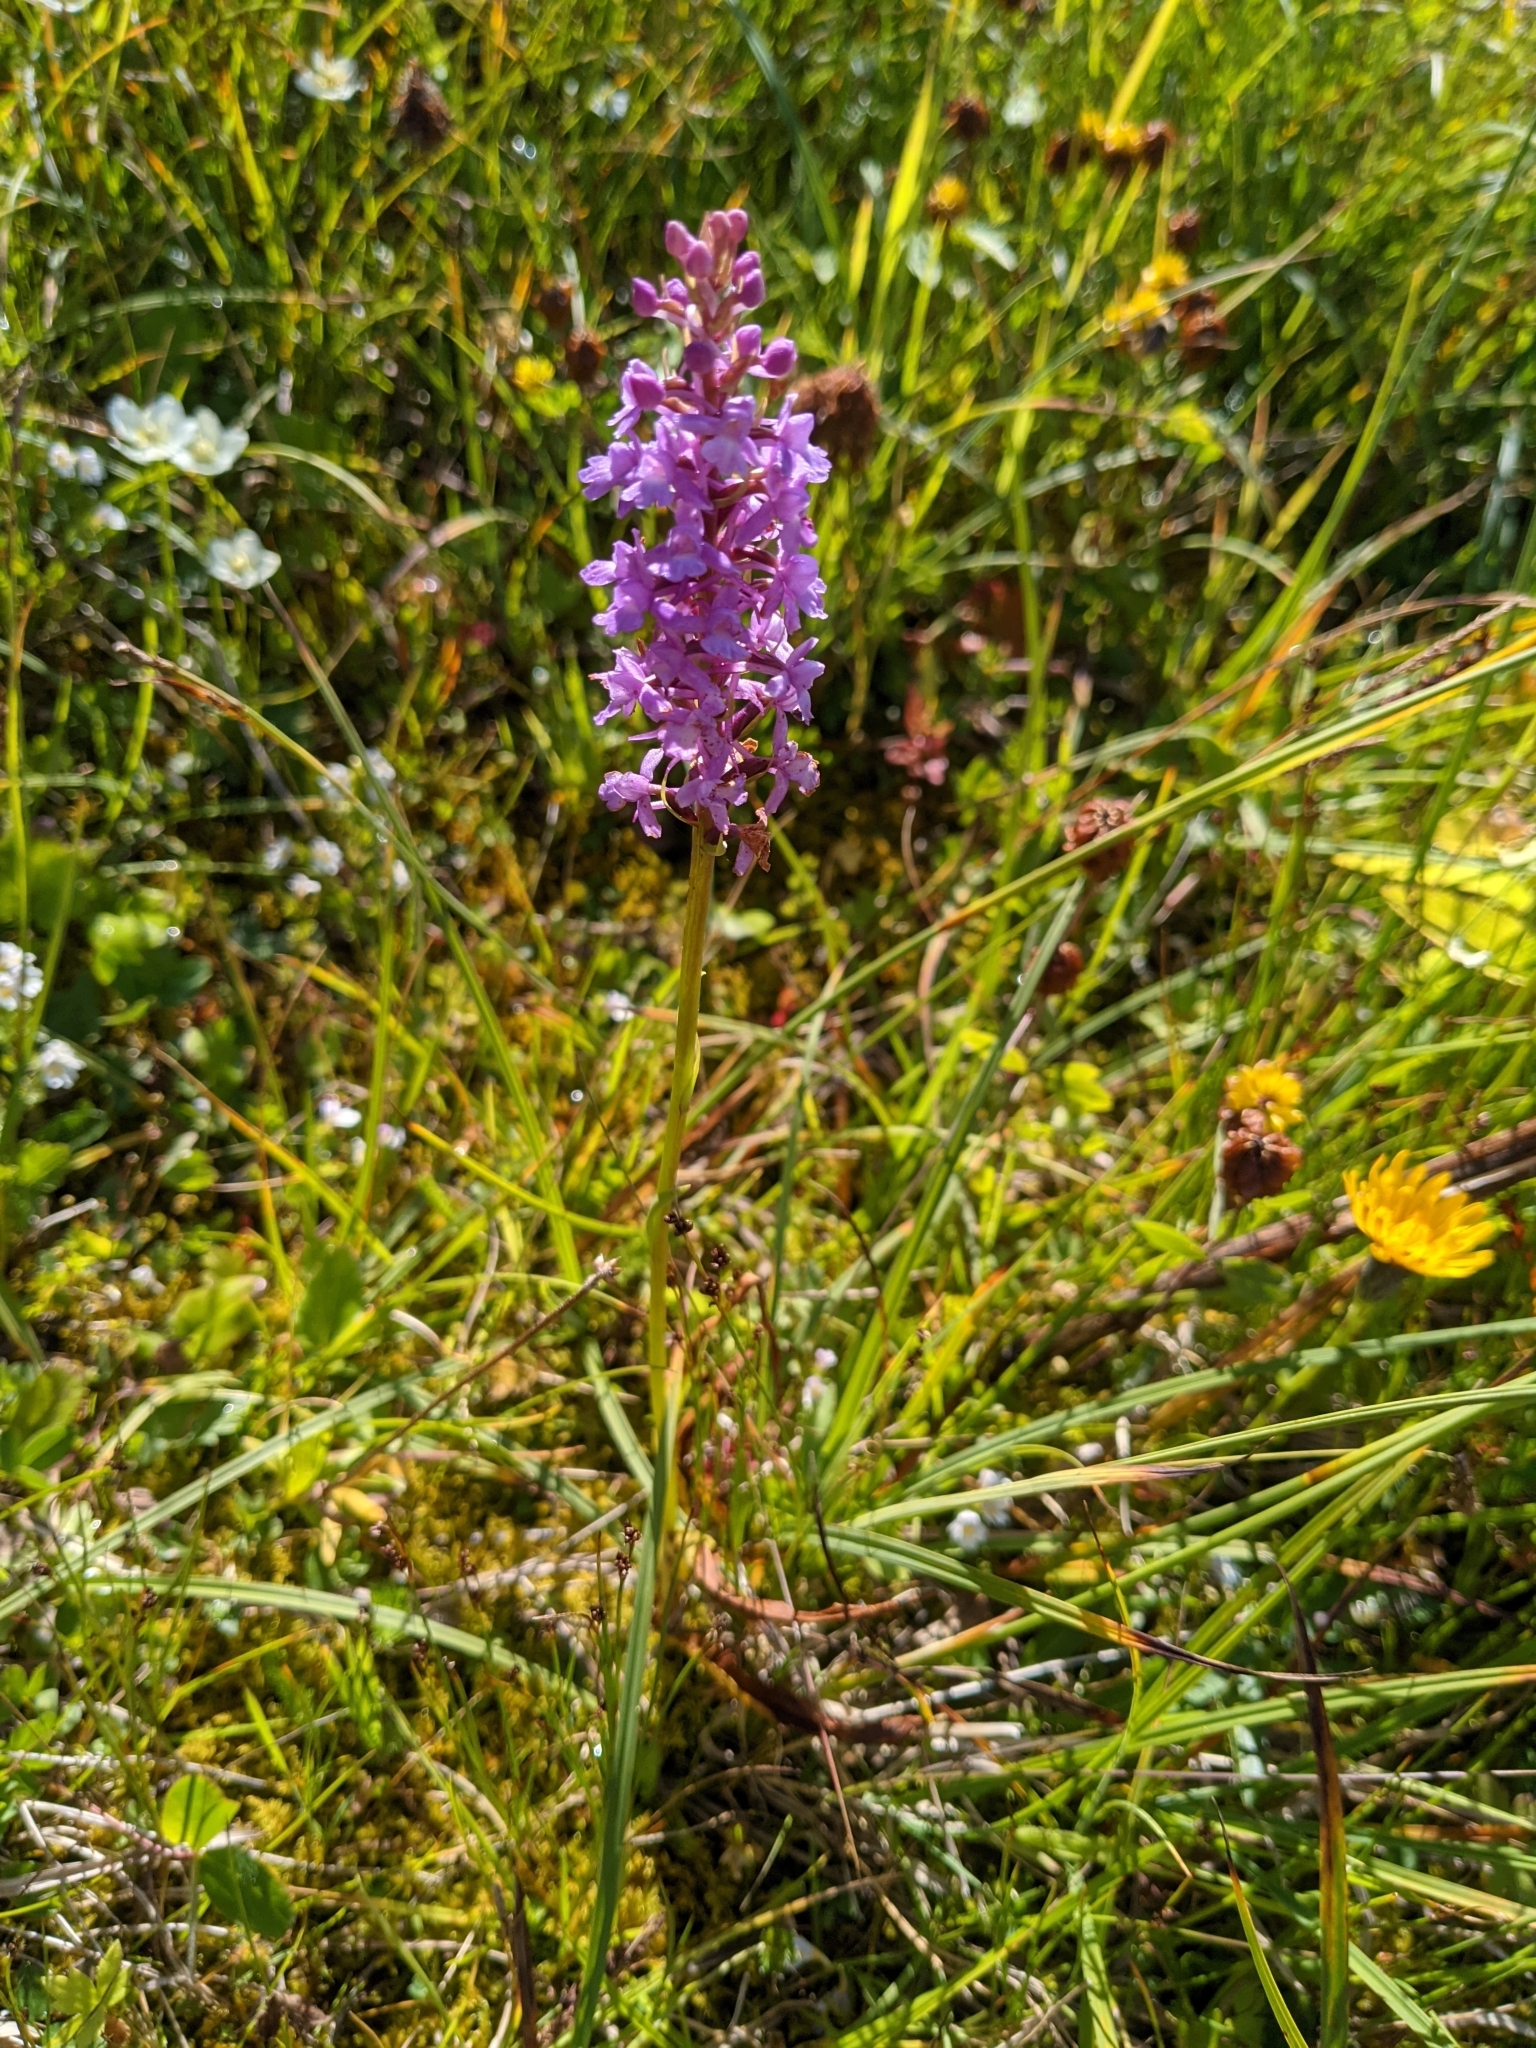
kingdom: Plantae
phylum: Tracheophyta
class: Liliopsida
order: Asparagales
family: Orchidaceae
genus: Gymnadenia
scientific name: Gymnadenia conopsea
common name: Fragrant orchid
